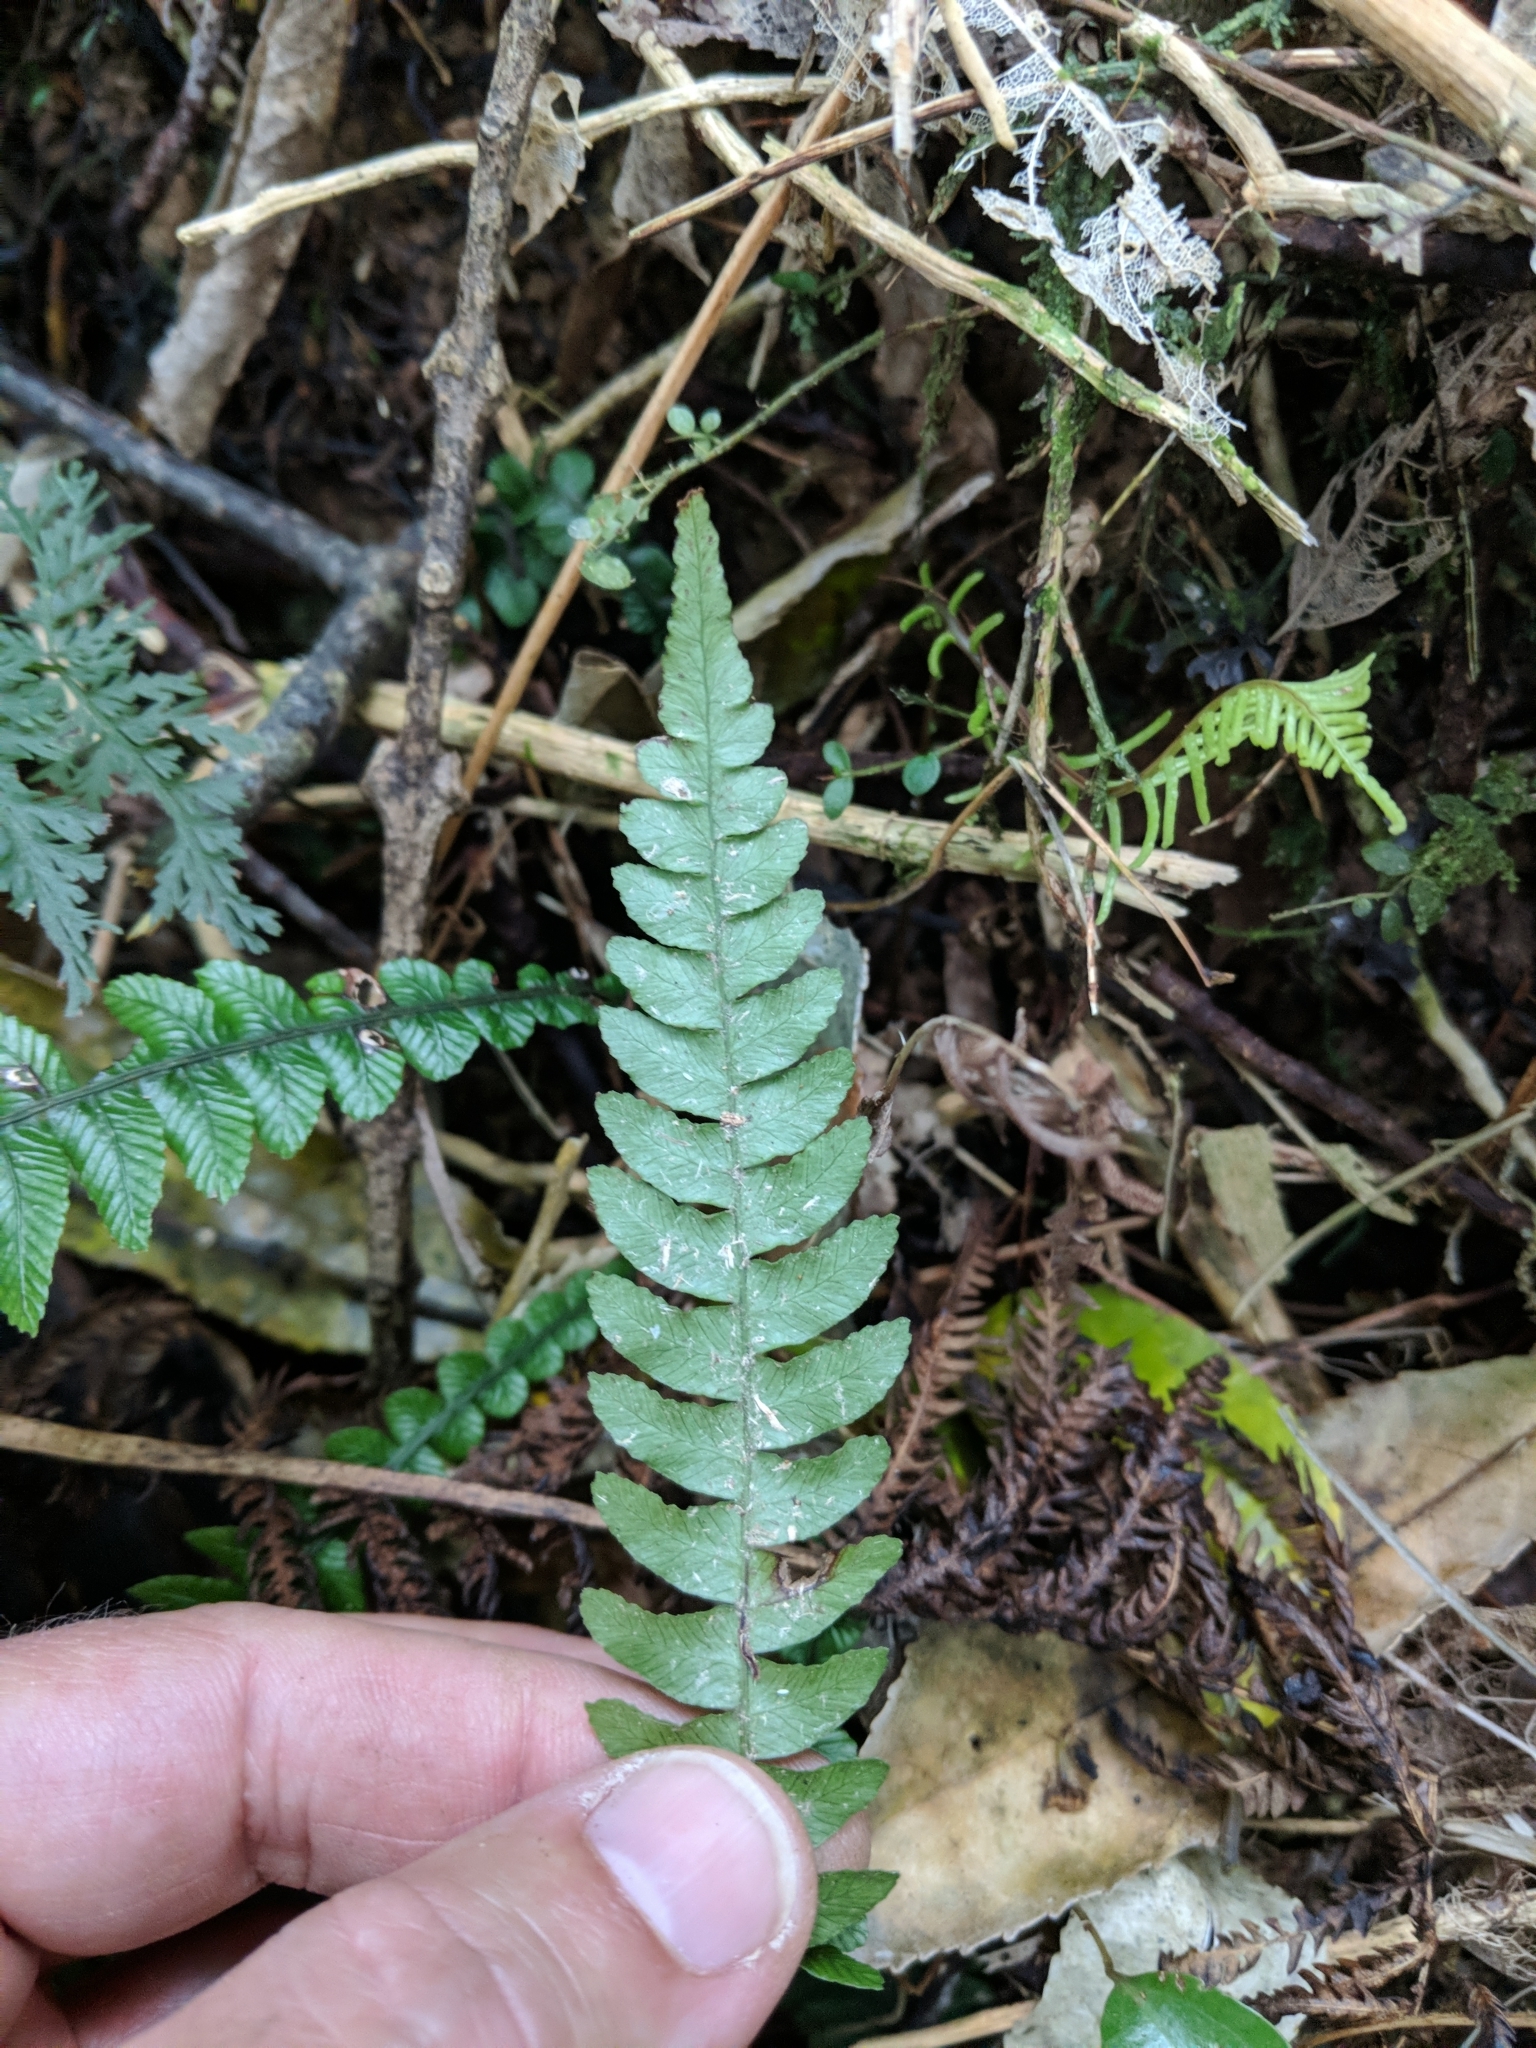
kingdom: Plantae
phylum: Tracheophyta
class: Polypodiopsida
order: Polypodiales
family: Blechnaceae
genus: Austroblechnum
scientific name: Austroblechnum lanceolatum
